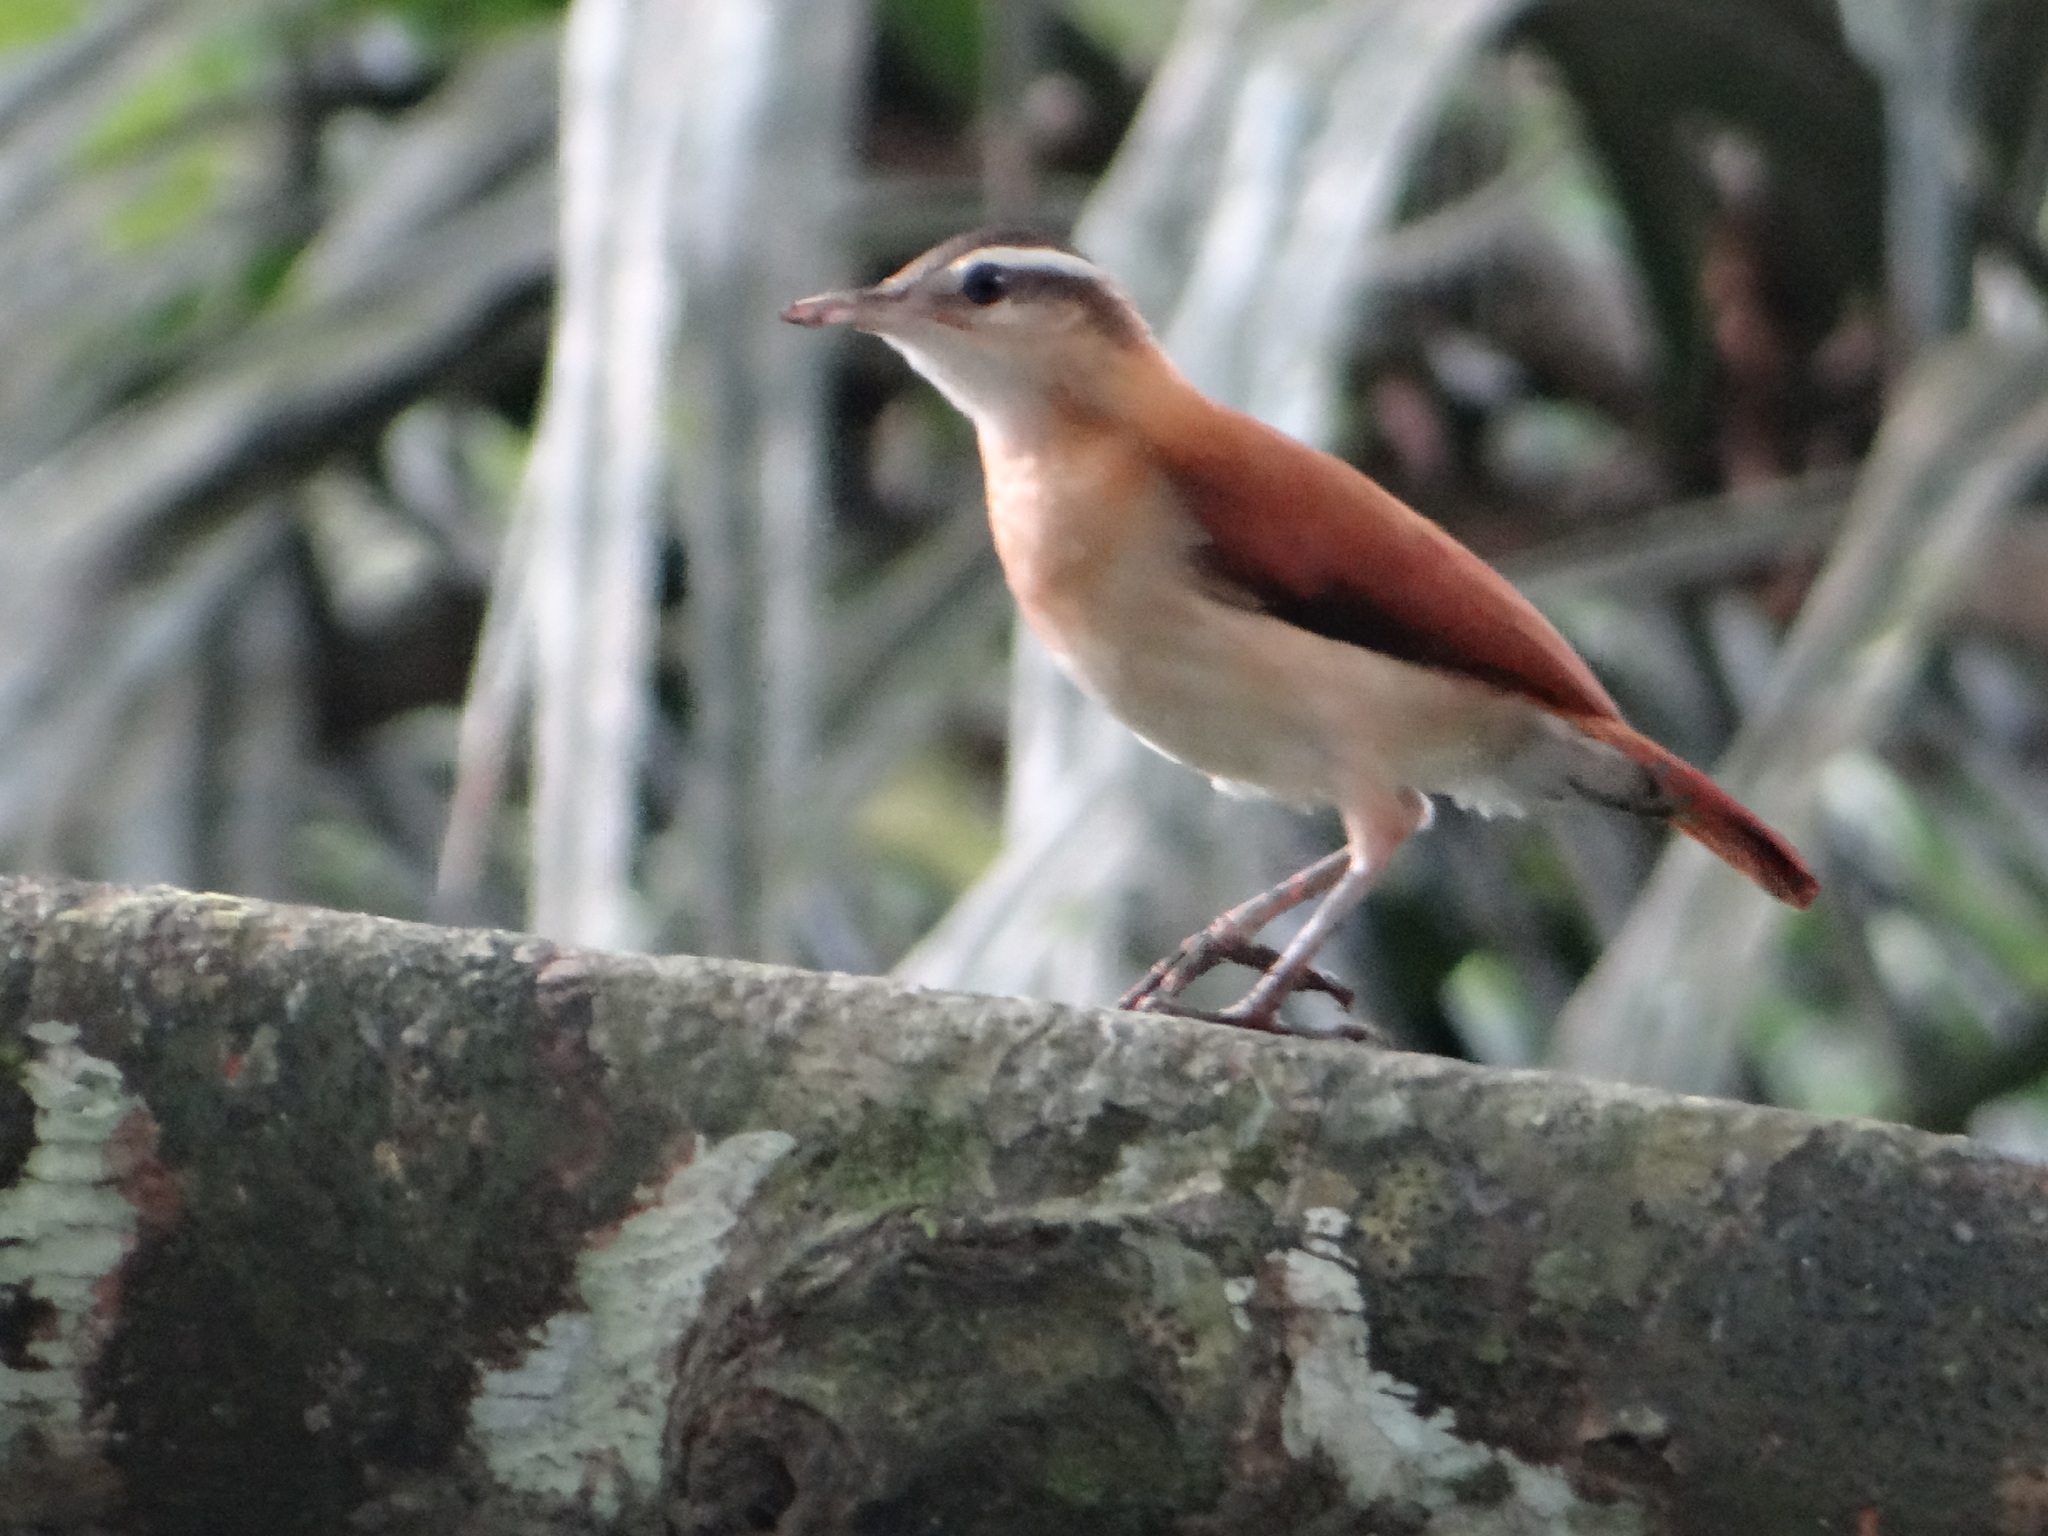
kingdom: Animalia
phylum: Chordata
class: Aves
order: Passeriformes
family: Furnariidae
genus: Furnarius
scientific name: Furnarius leucopus
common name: Pale-legged hornero
